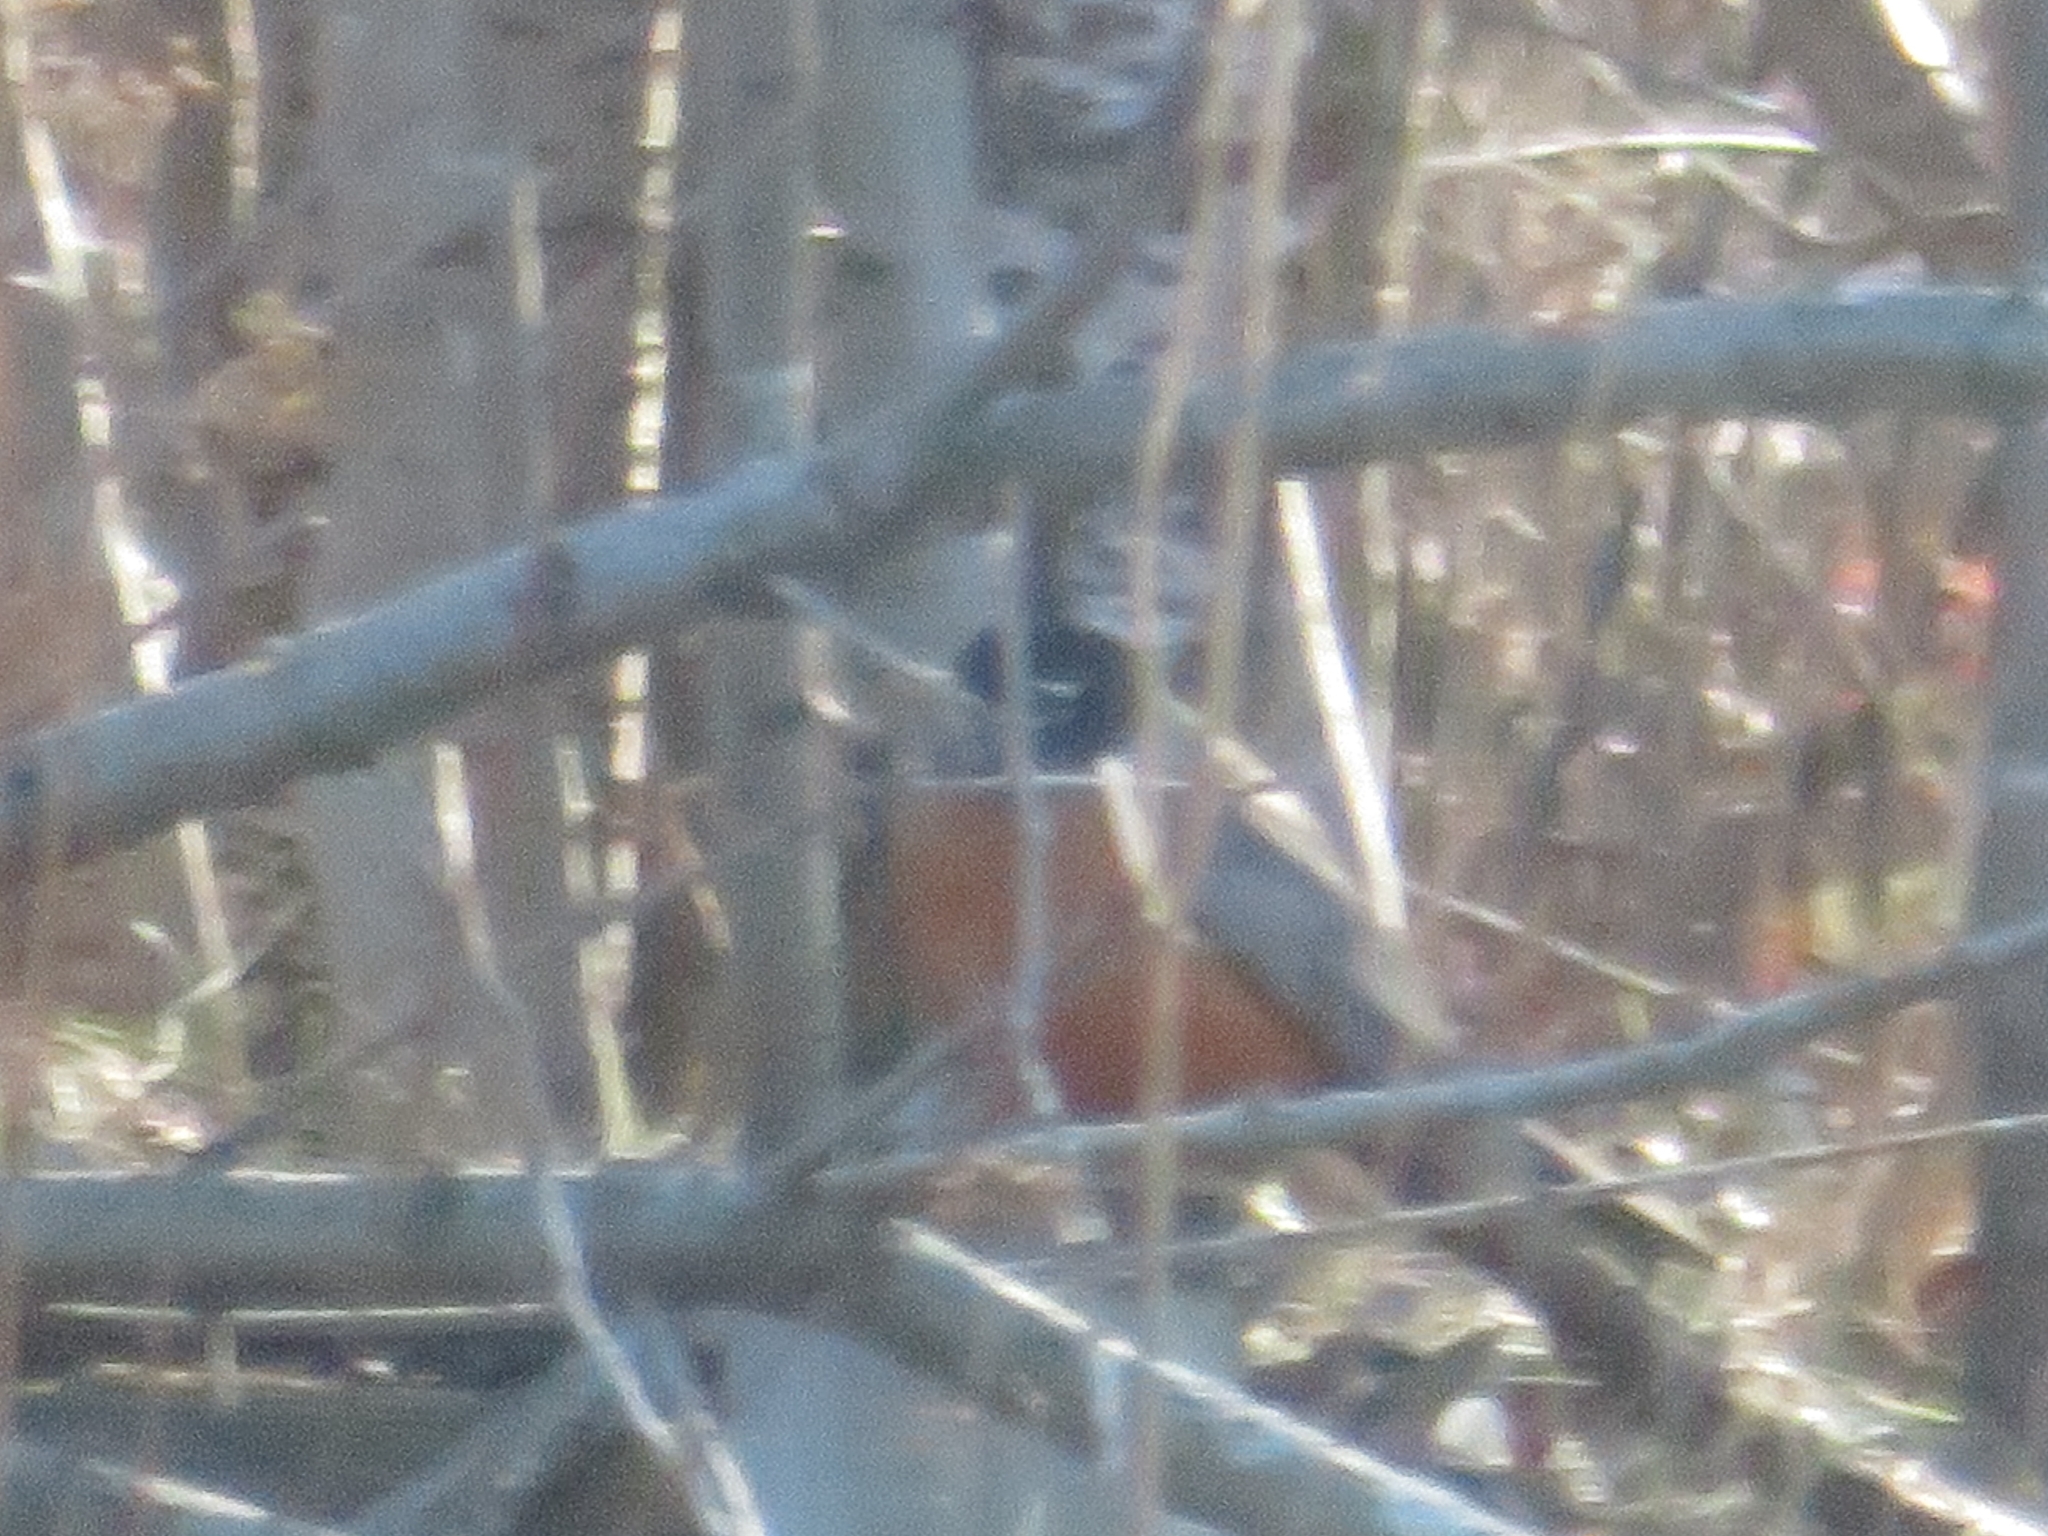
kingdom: Animalia
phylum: Chordata
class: Aves
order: Passeriformes
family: Turdidae
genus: Turdus
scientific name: Turdus migratorius
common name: American robin
